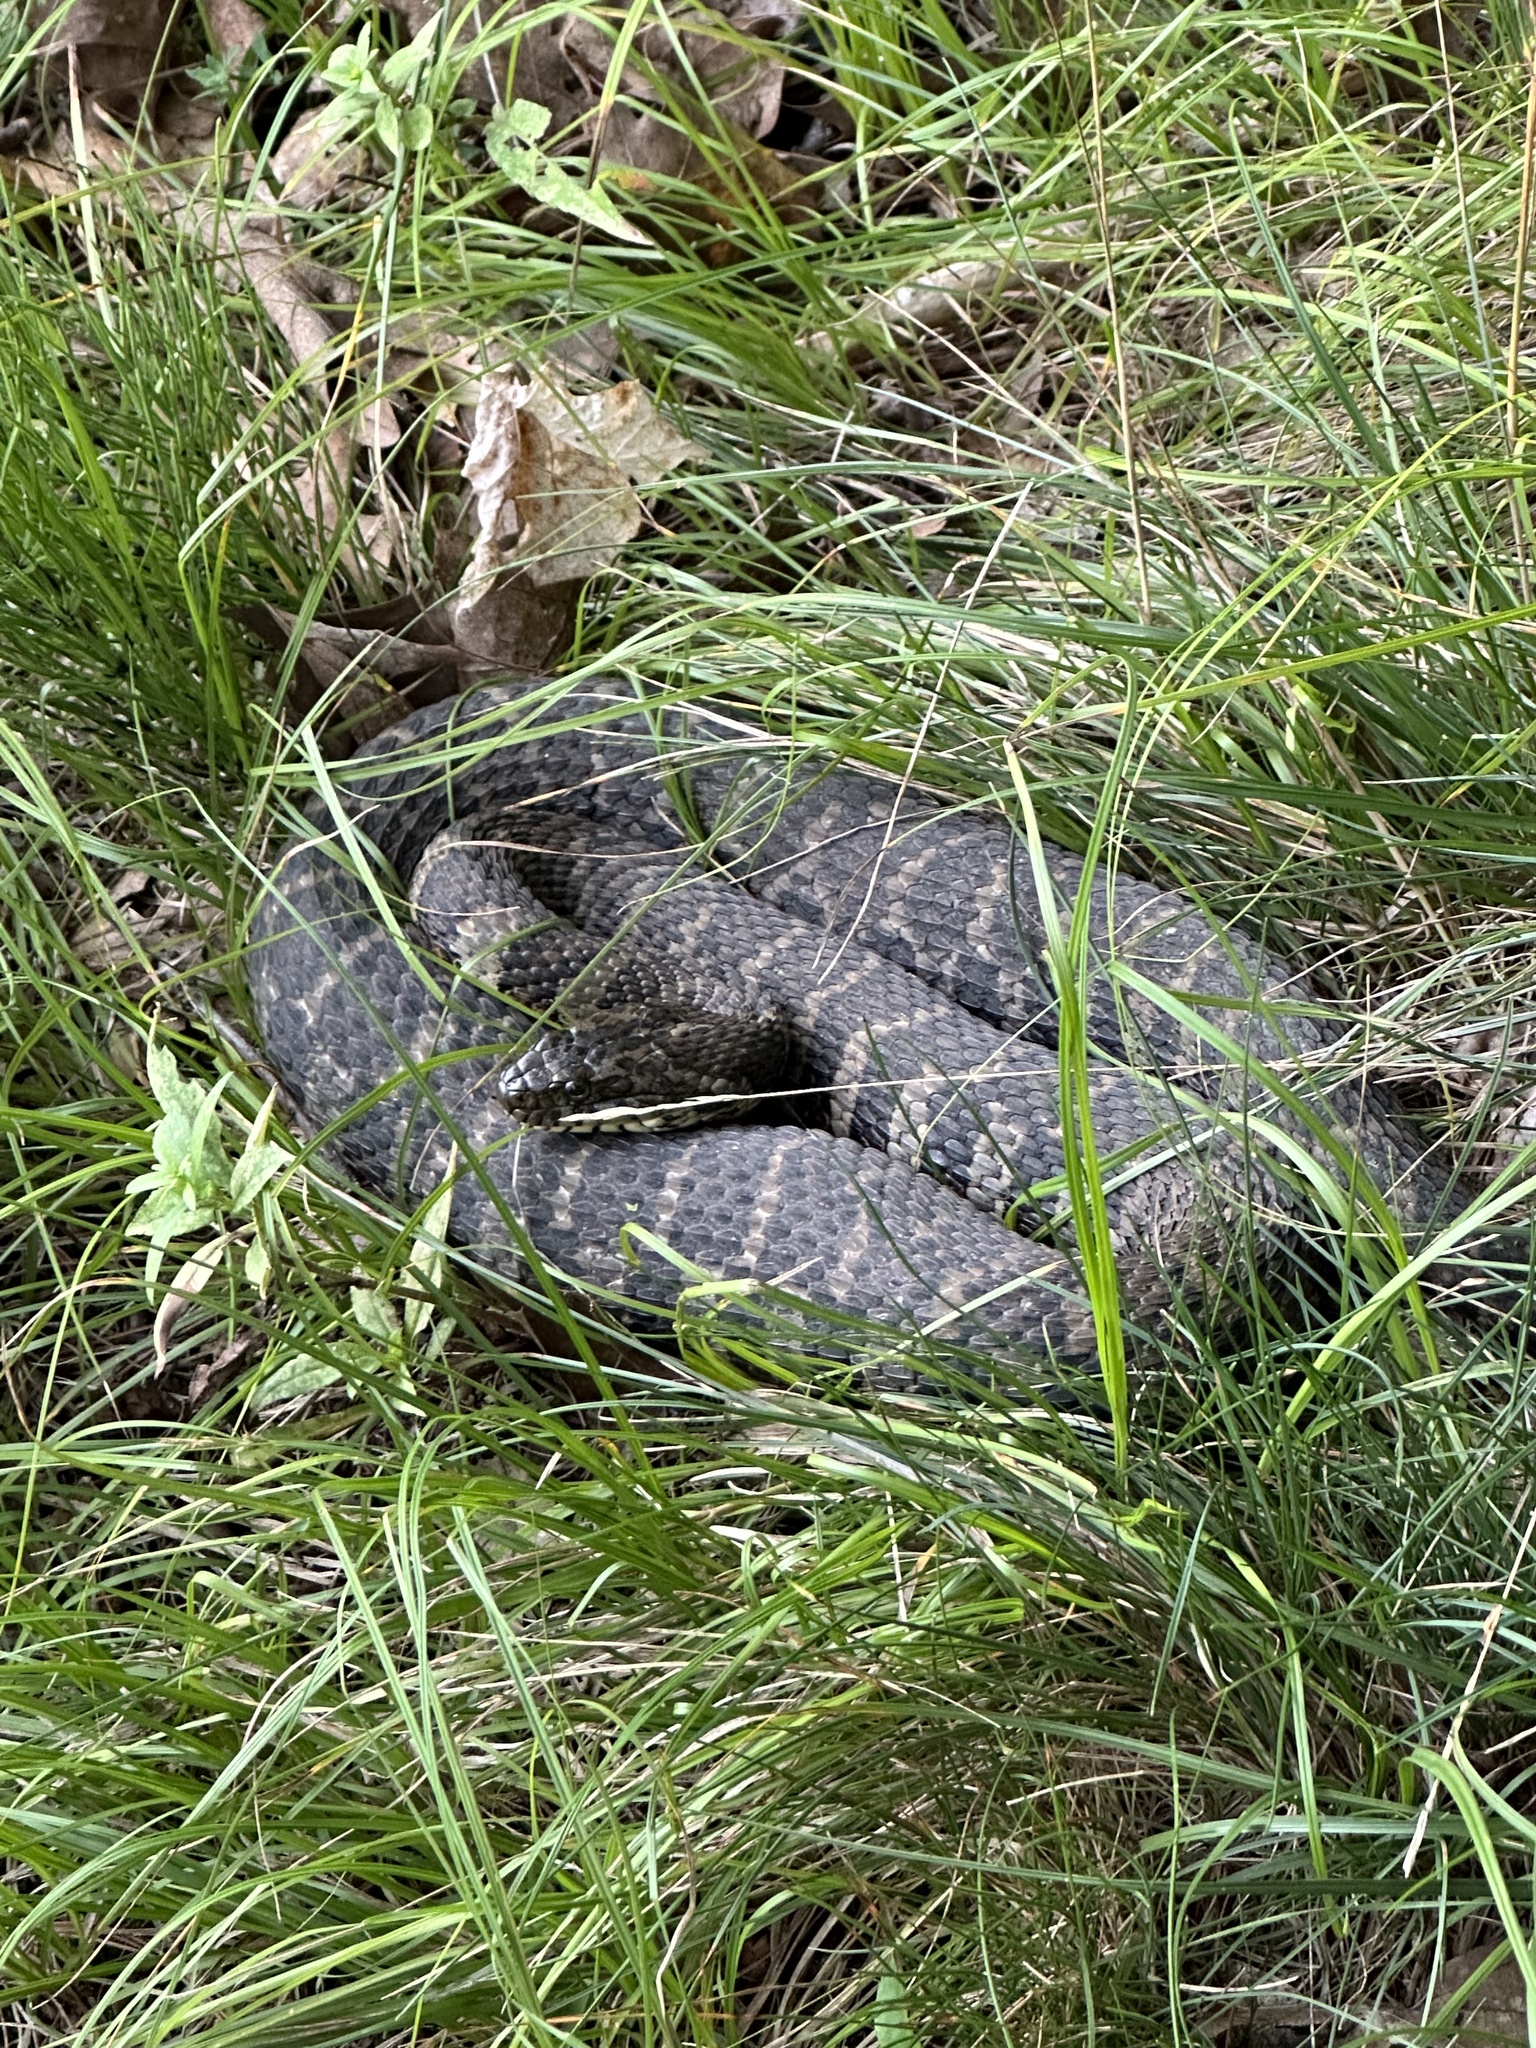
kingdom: Animalia
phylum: Chordata
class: Squamata
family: Colubridae
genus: Nerodia
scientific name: Nerodia sipedon
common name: Northern water snake
